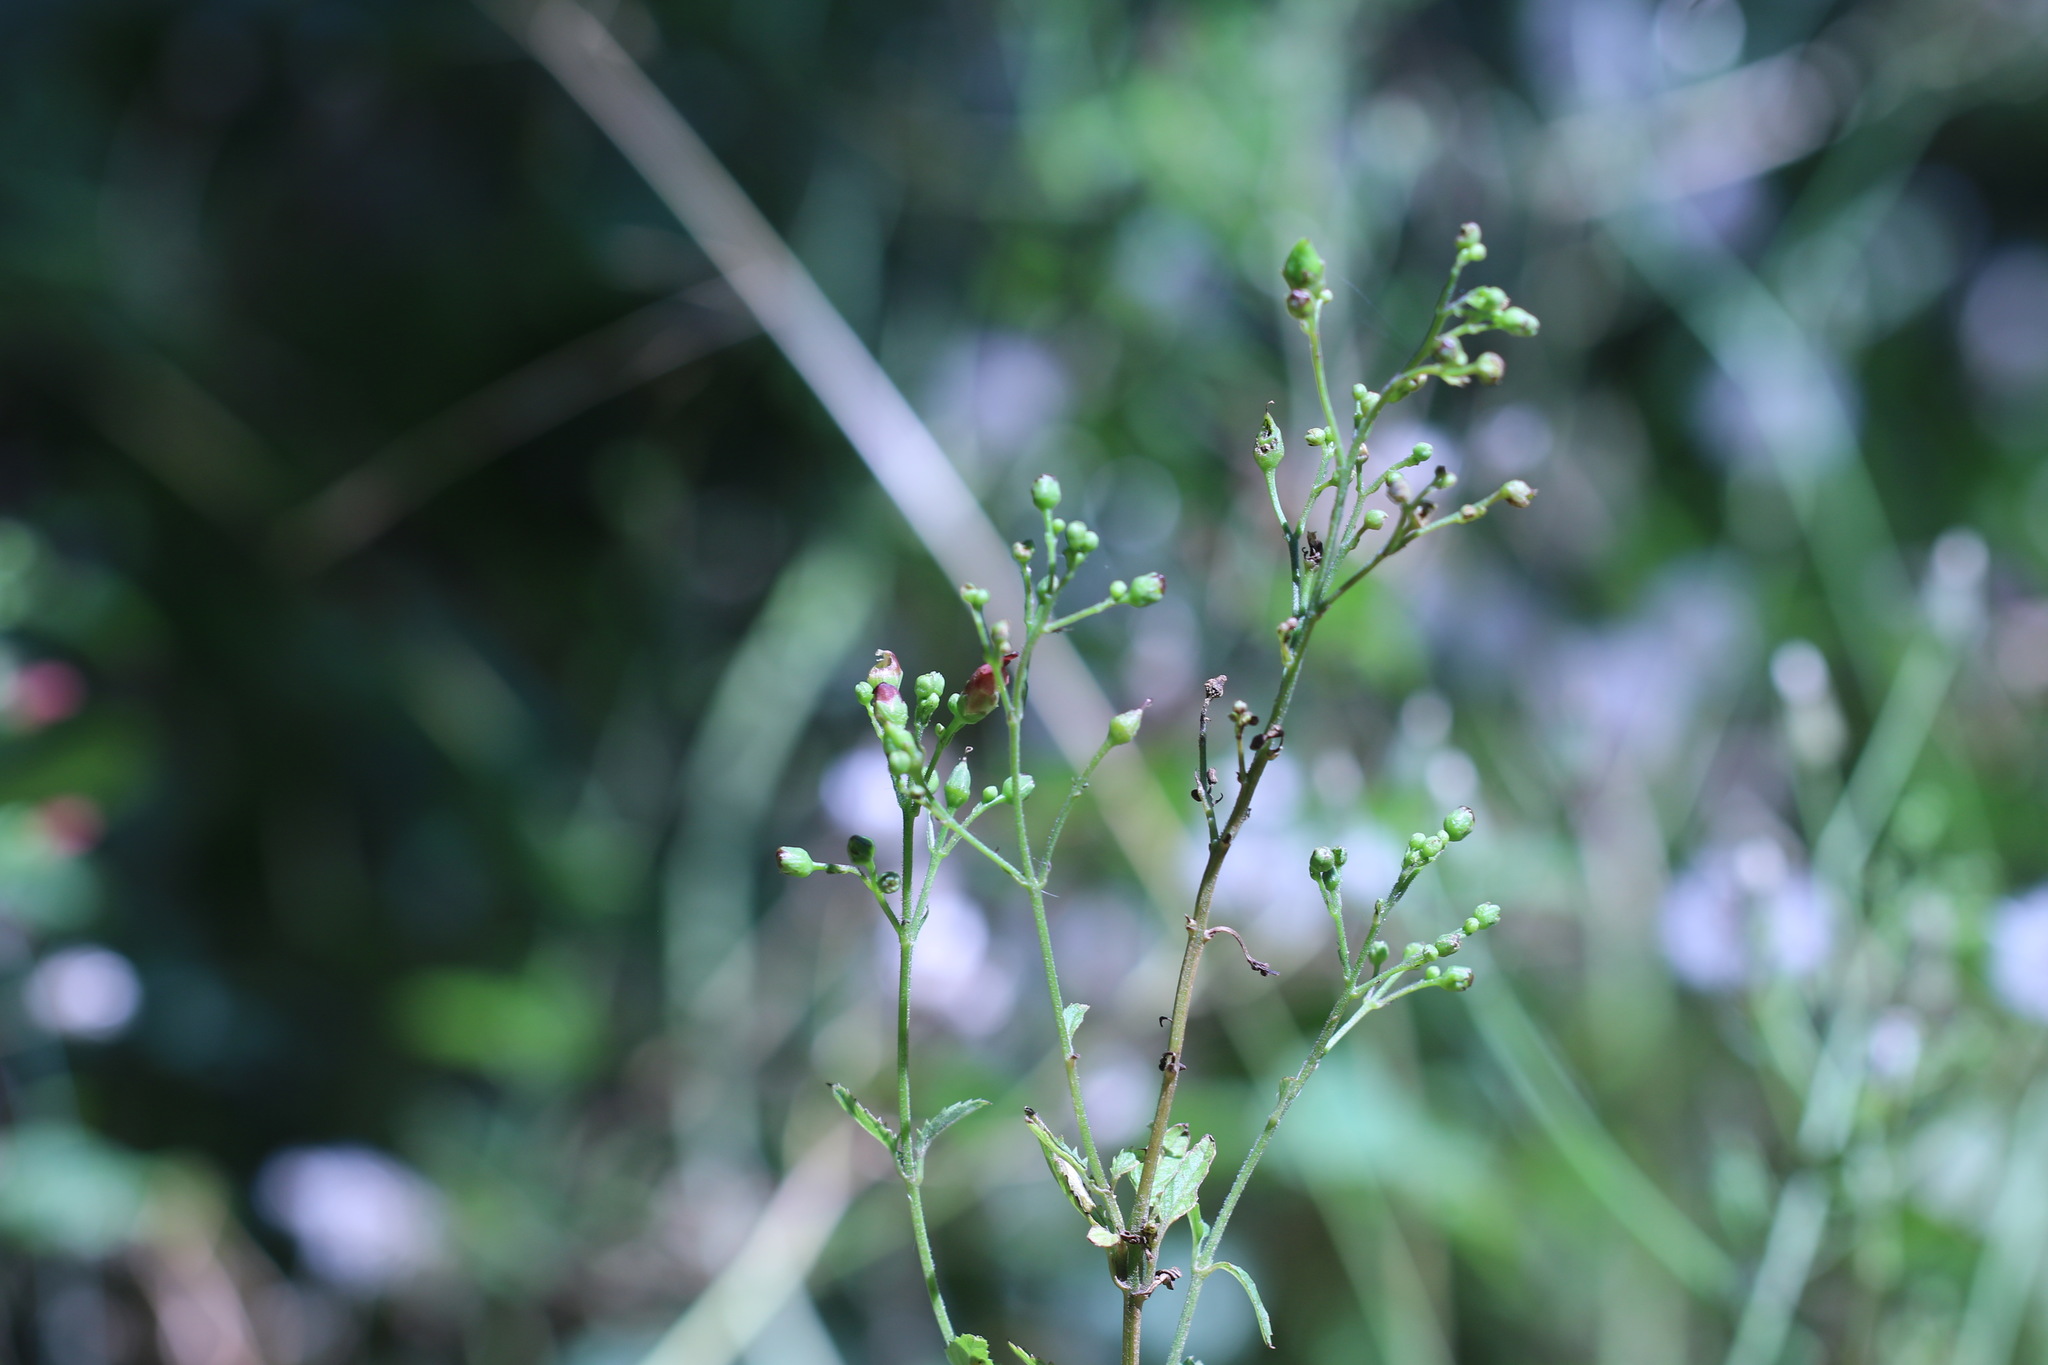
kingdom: Plantae
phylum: Tracheophyta
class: Magnoliopsida
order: Lamiales
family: Scrophulariaceae
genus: Scrophularia
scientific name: Scrophularia californica
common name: California figwort
